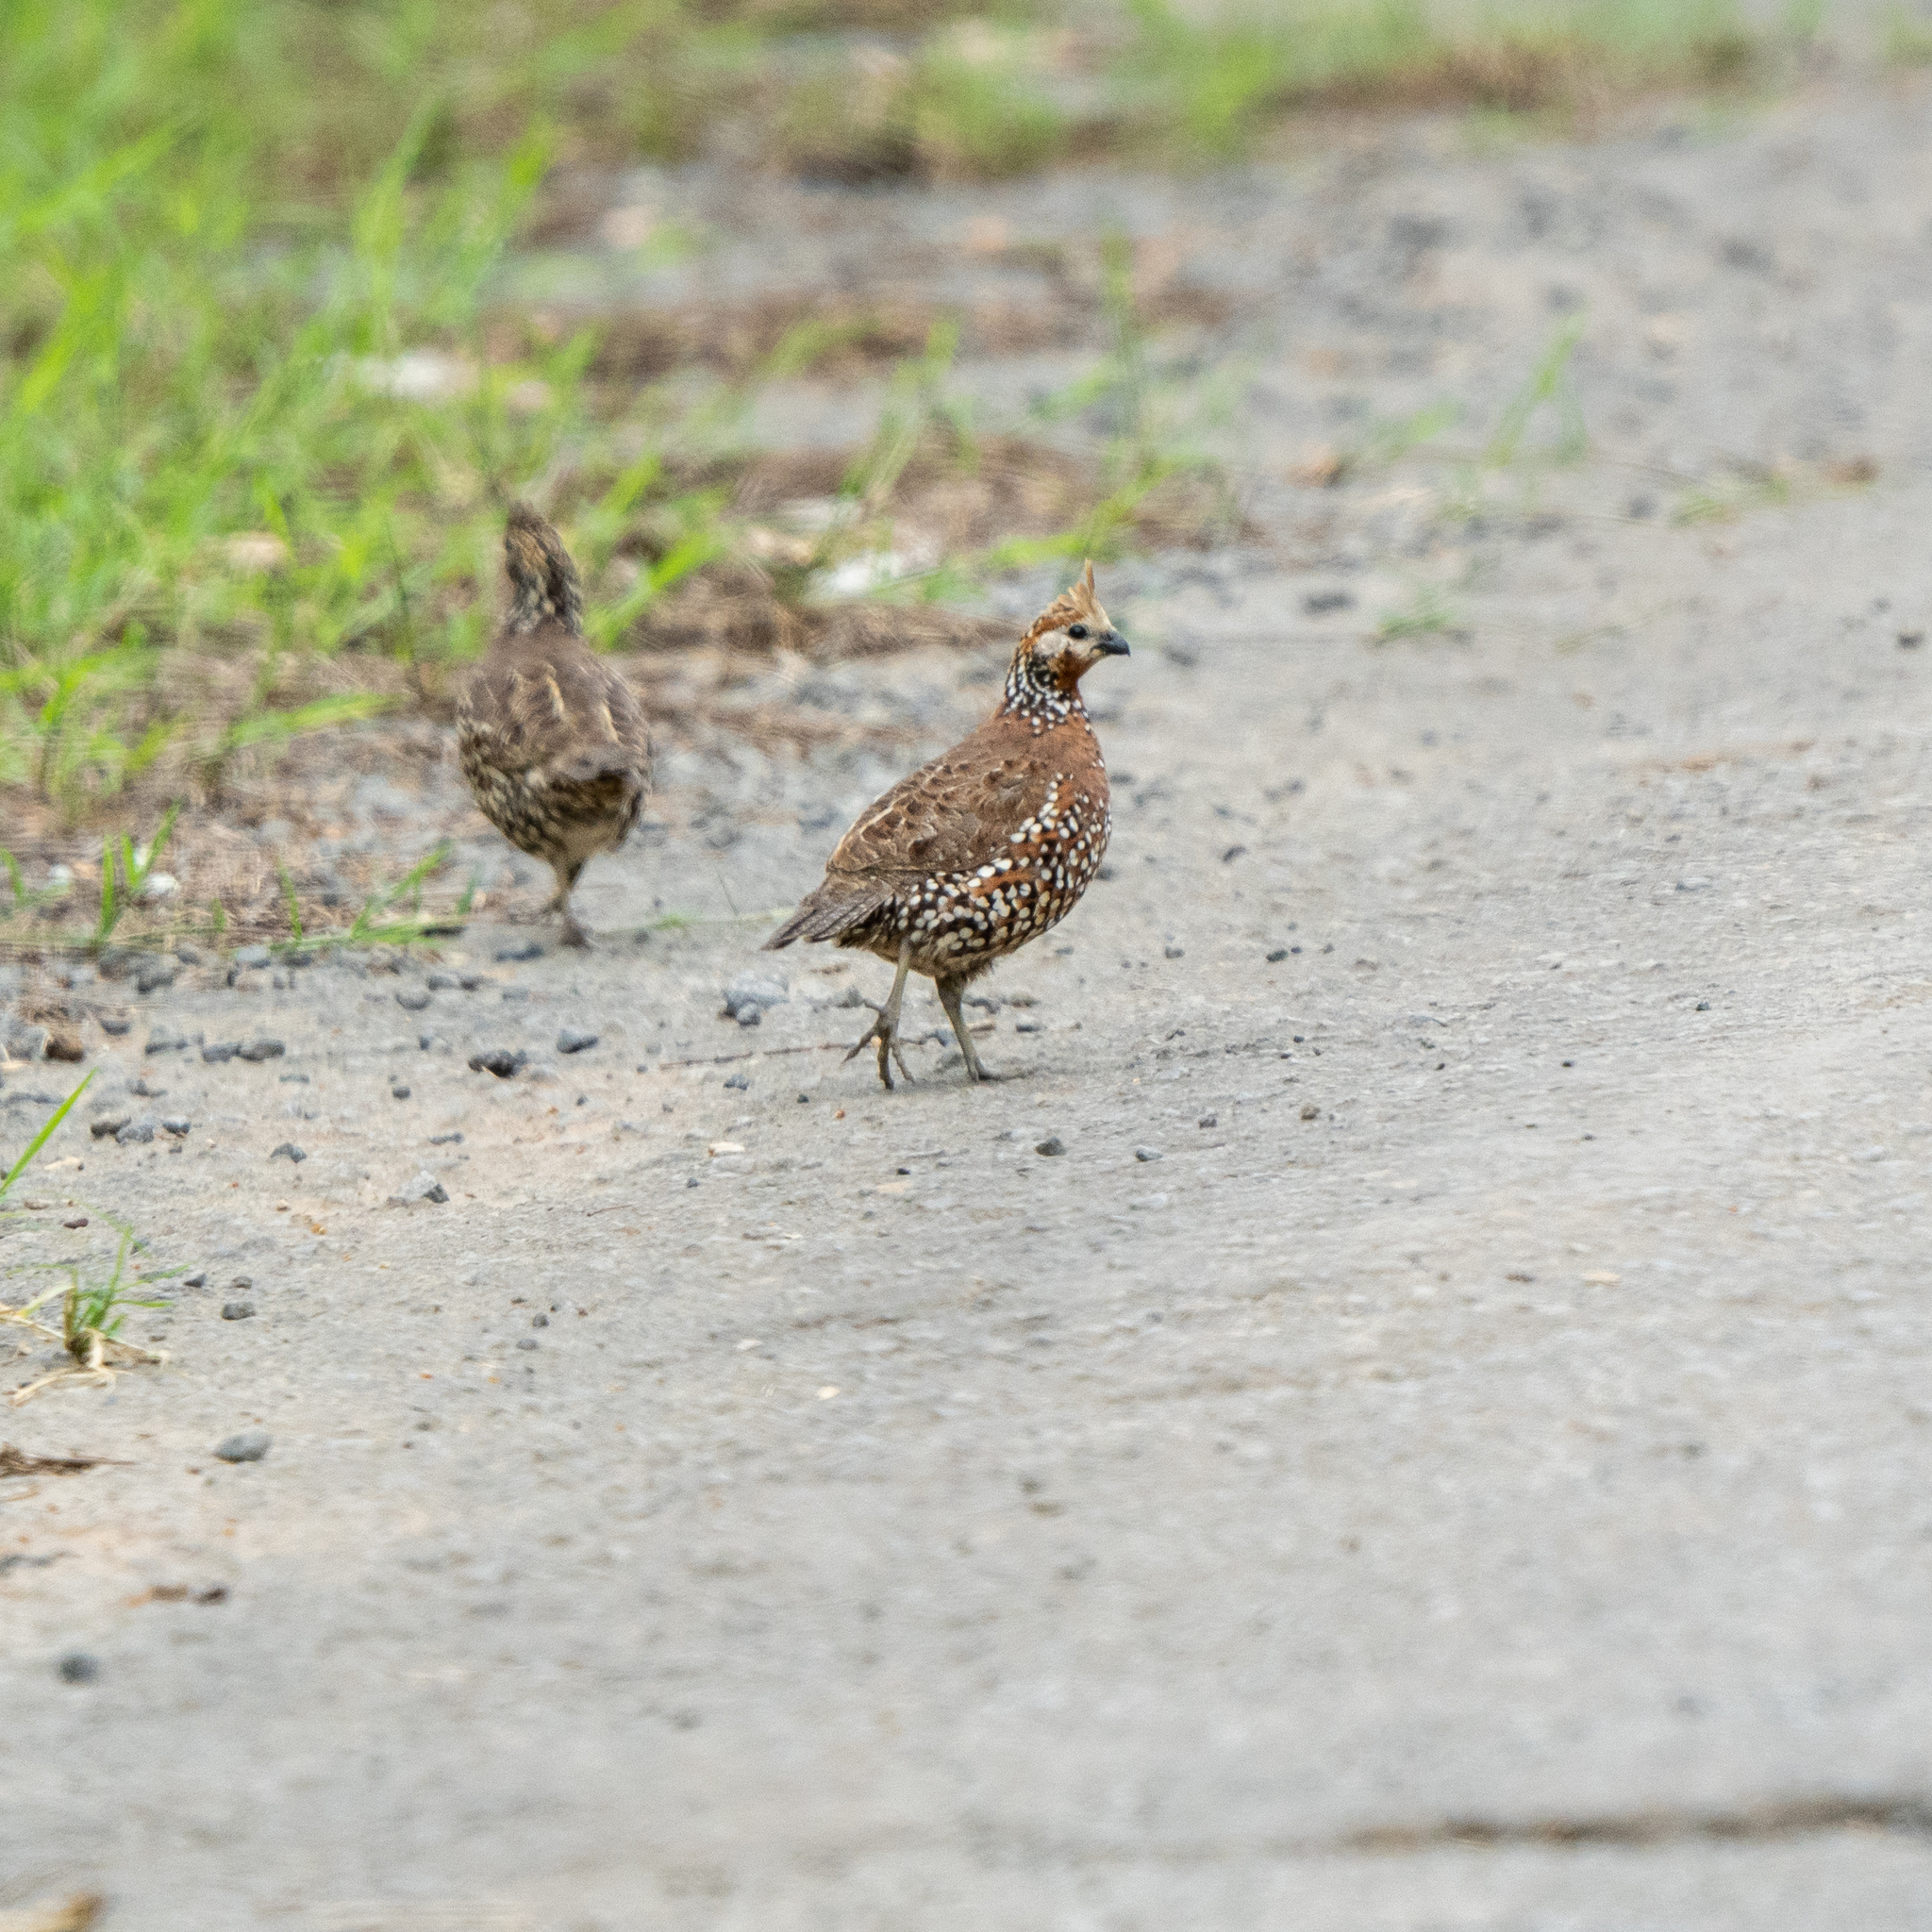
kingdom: Animalia
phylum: Chordata
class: Aves
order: Galliformes
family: Odontophoridae
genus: Colinus
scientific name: Colinus cristatus
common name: Crested bobwhite
